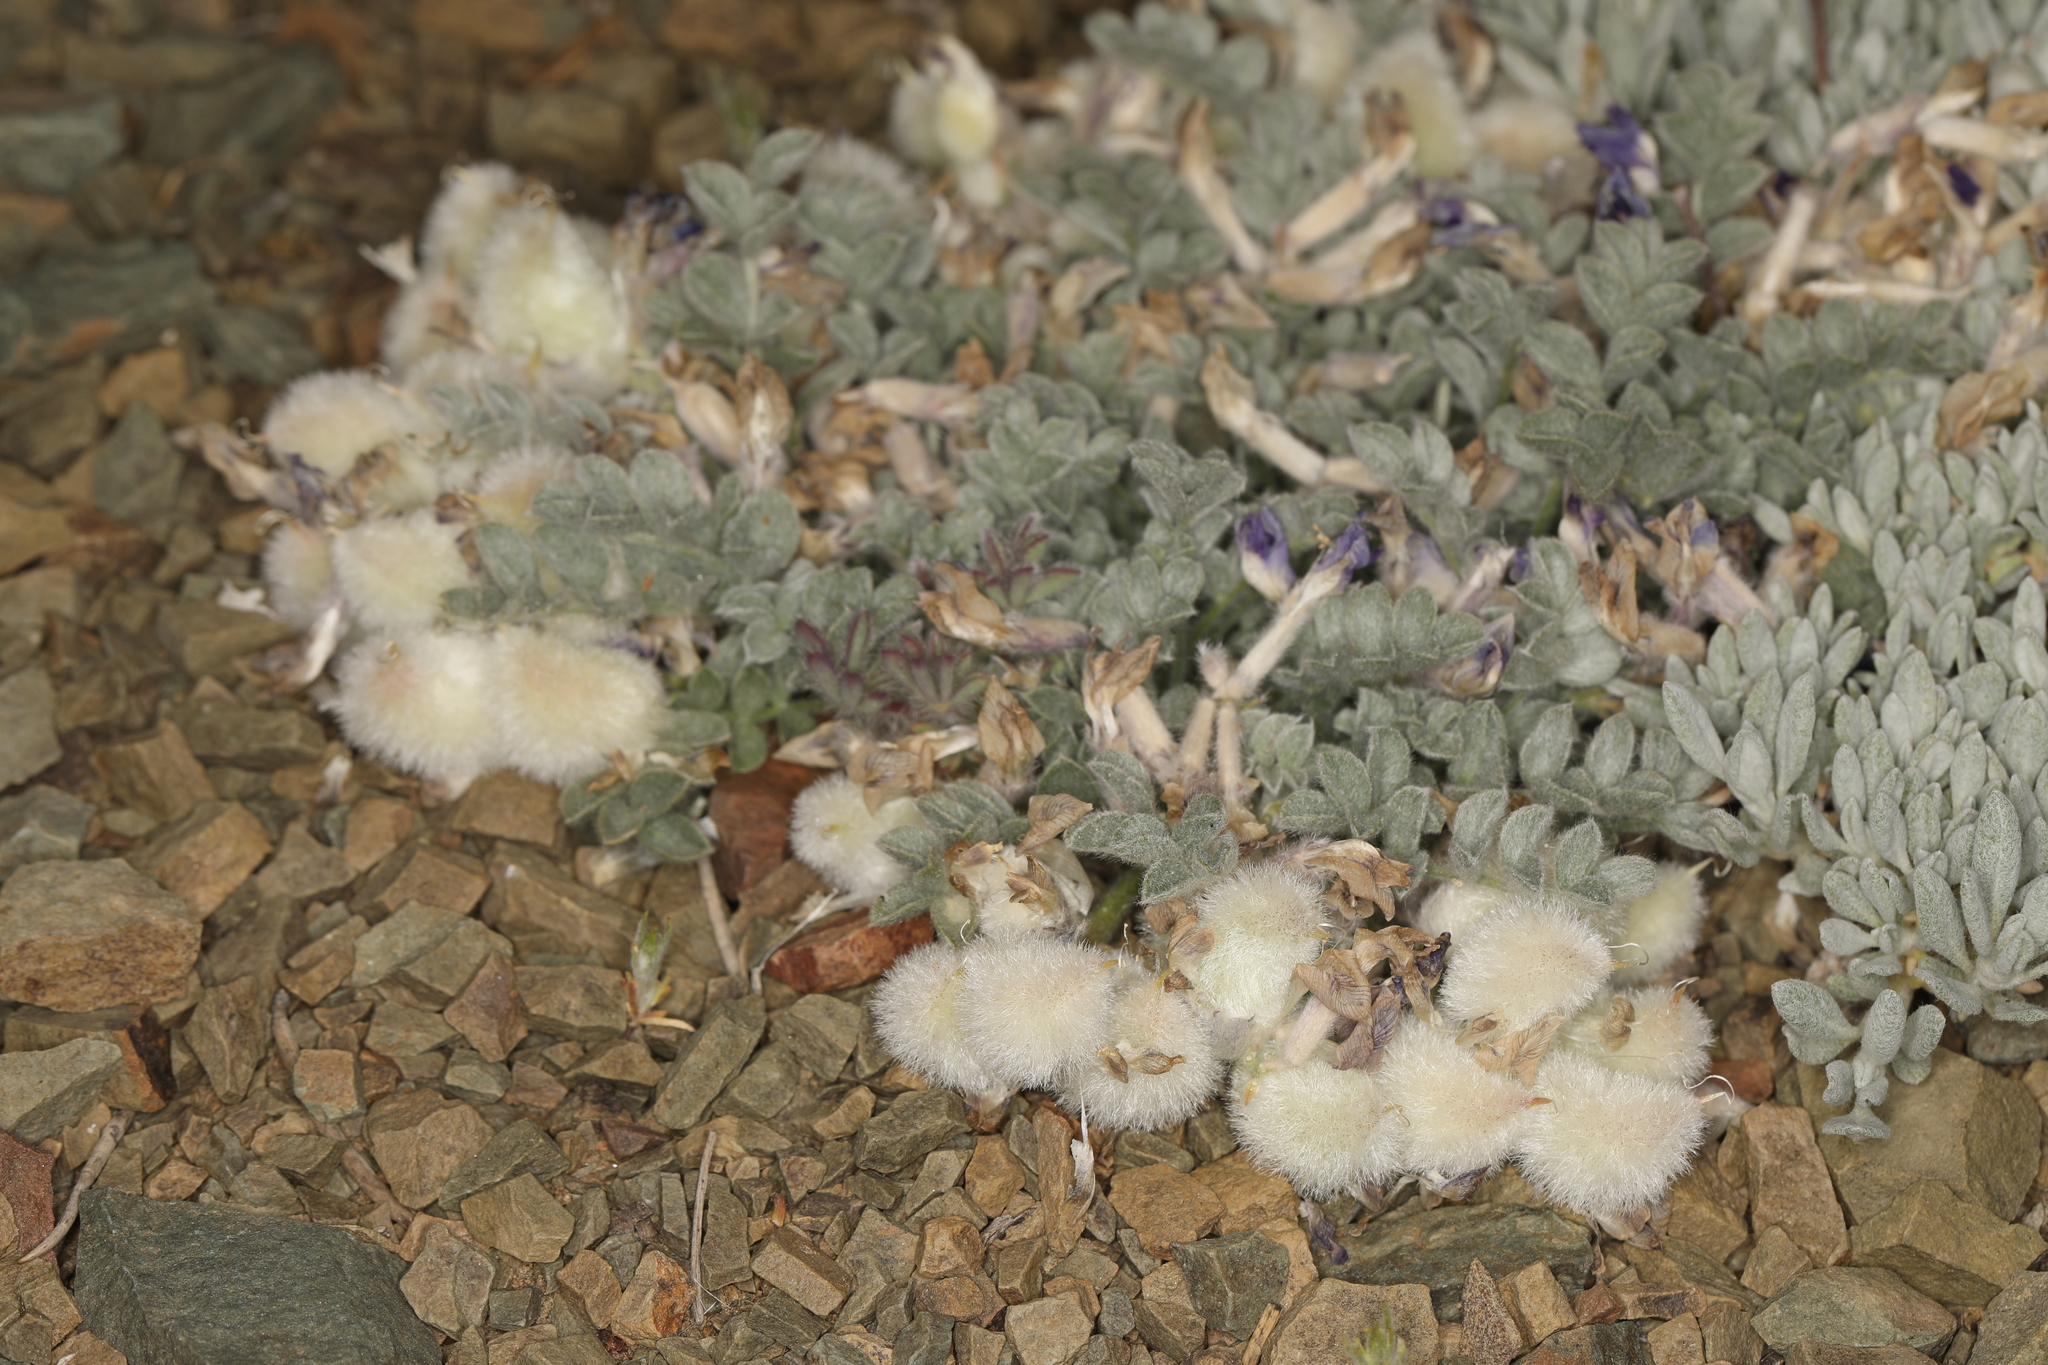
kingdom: Plantae
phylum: Tracheophyta
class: Magnoliopsida
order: Fabales
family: Fabaceae
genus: Astragalus
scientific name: Astragalus purshii
